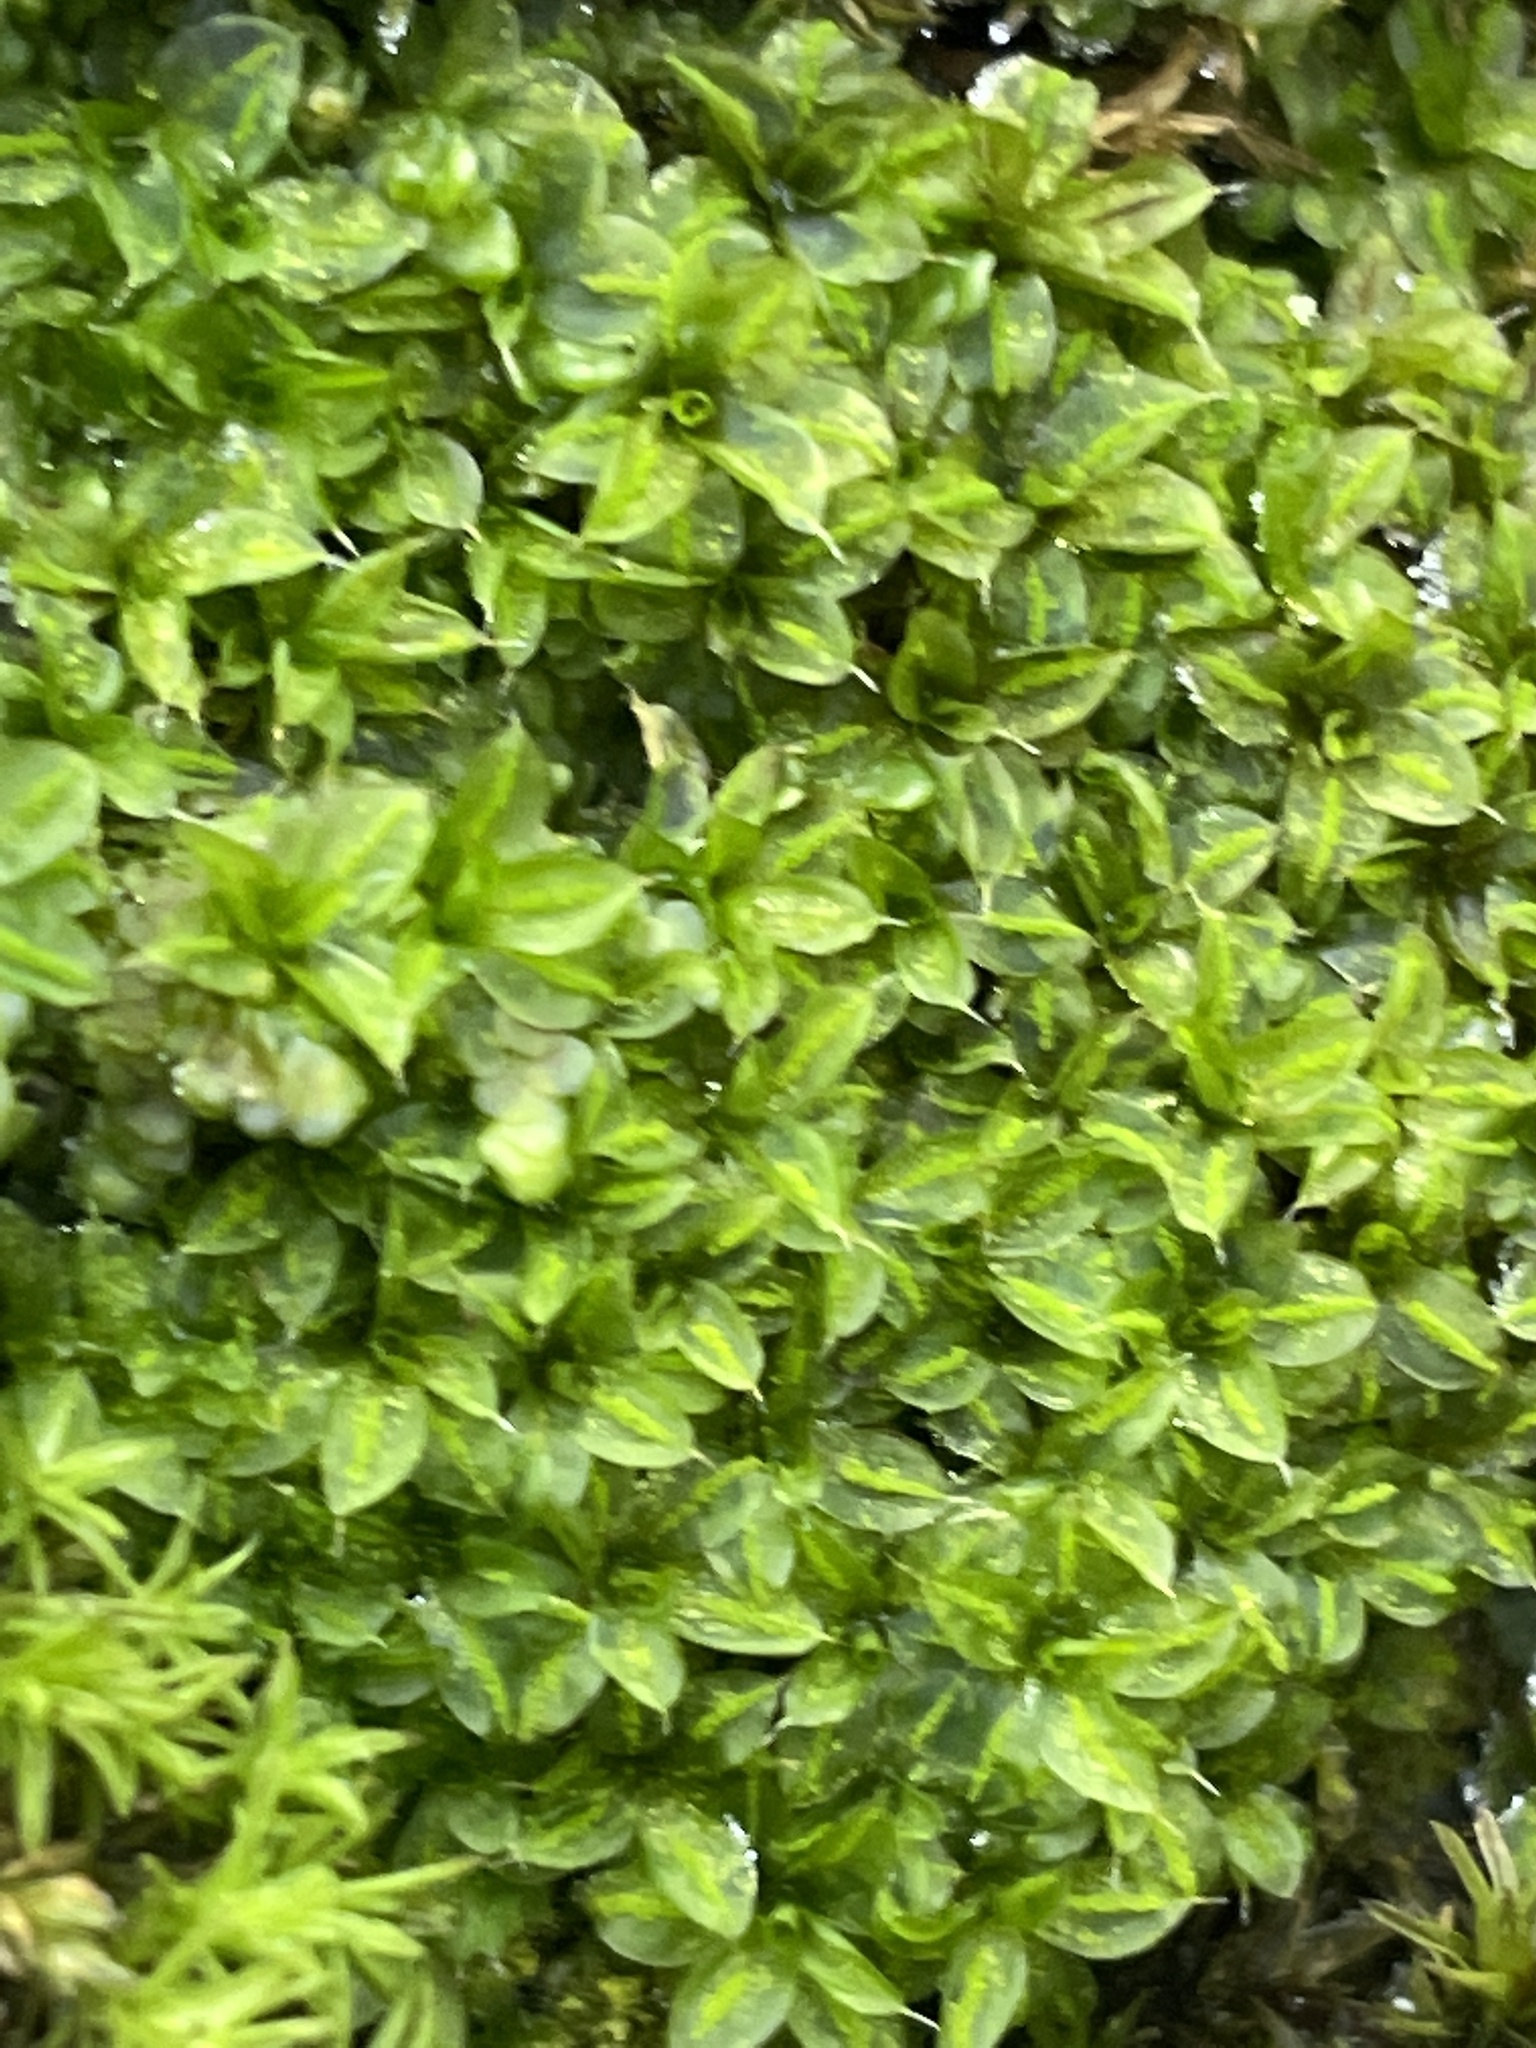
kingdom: Plantae
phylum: Bryophyta
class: Bryopsida
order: Pottiales
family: Pottiaceae
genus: Syntrichia
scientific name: Syntrichia papillosa
